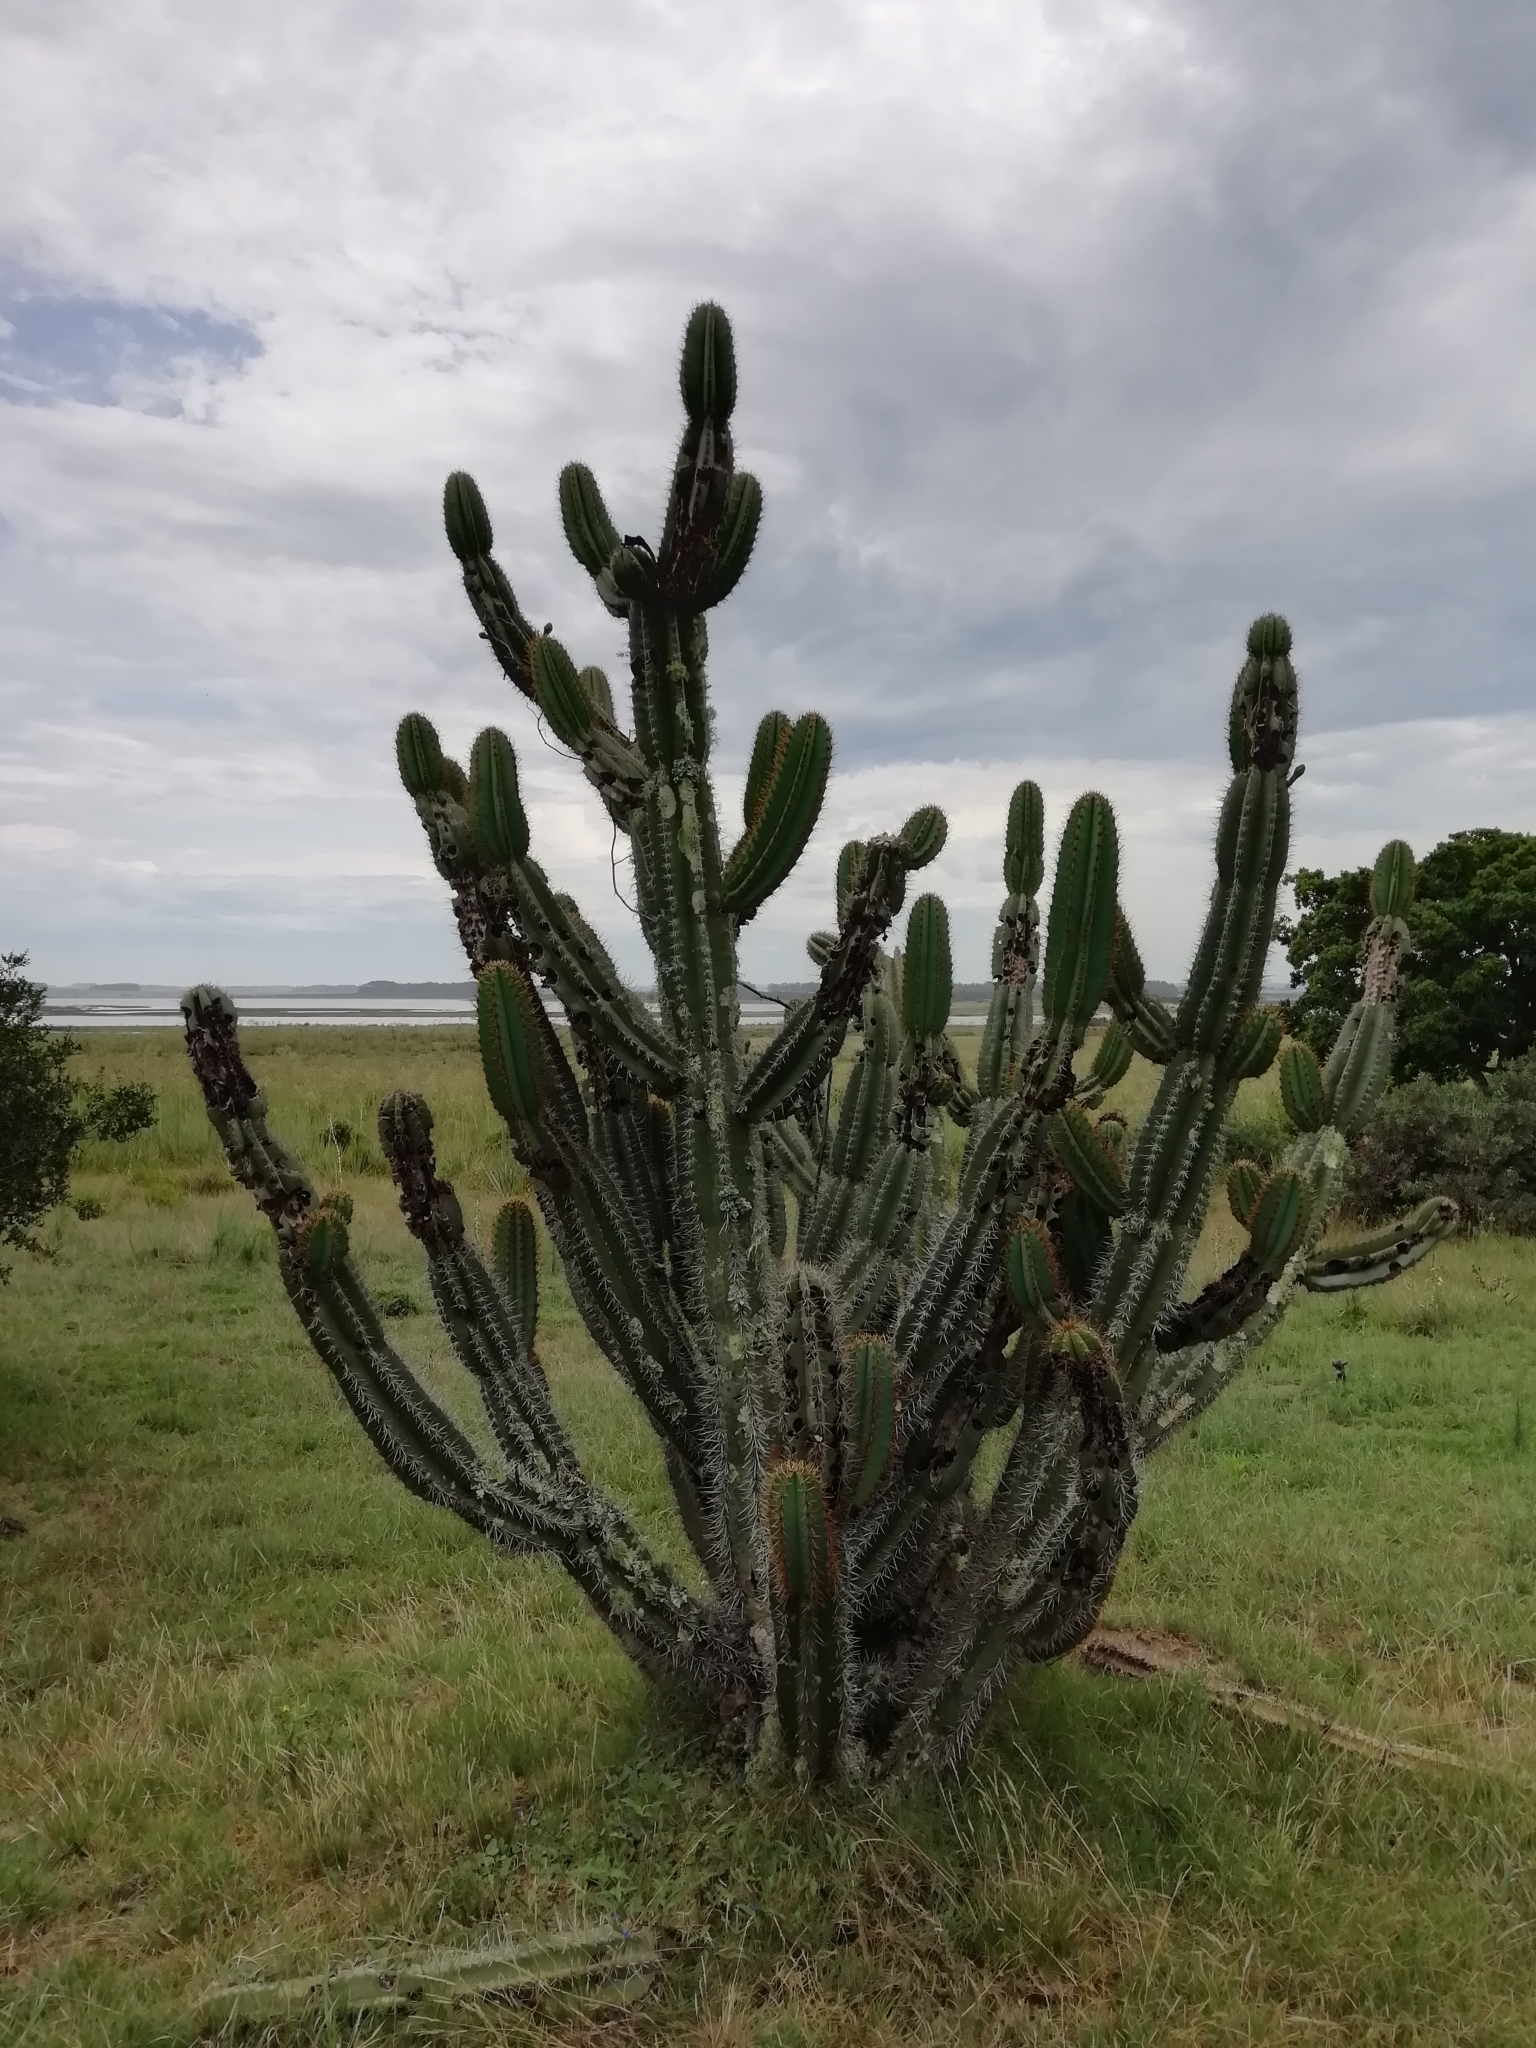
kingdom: Plantae
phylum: Tracheophyta
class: Magnoliopsida
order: Caryophyllales
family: Cactaceae
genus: Cereus
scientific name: Cereus hildmannianus
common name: Hedge cactus
